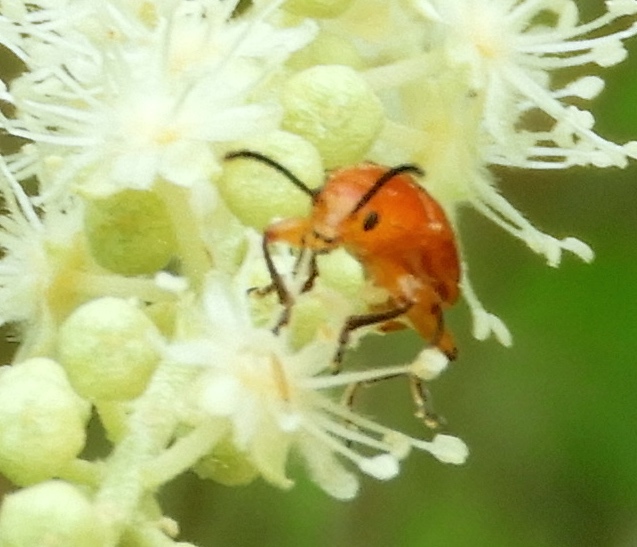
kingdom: Animalia
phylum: Arthropoda
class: Insecta
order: Coleoptera
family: Orsodacnidae
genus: Janbechynea
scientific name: Janbechynea
